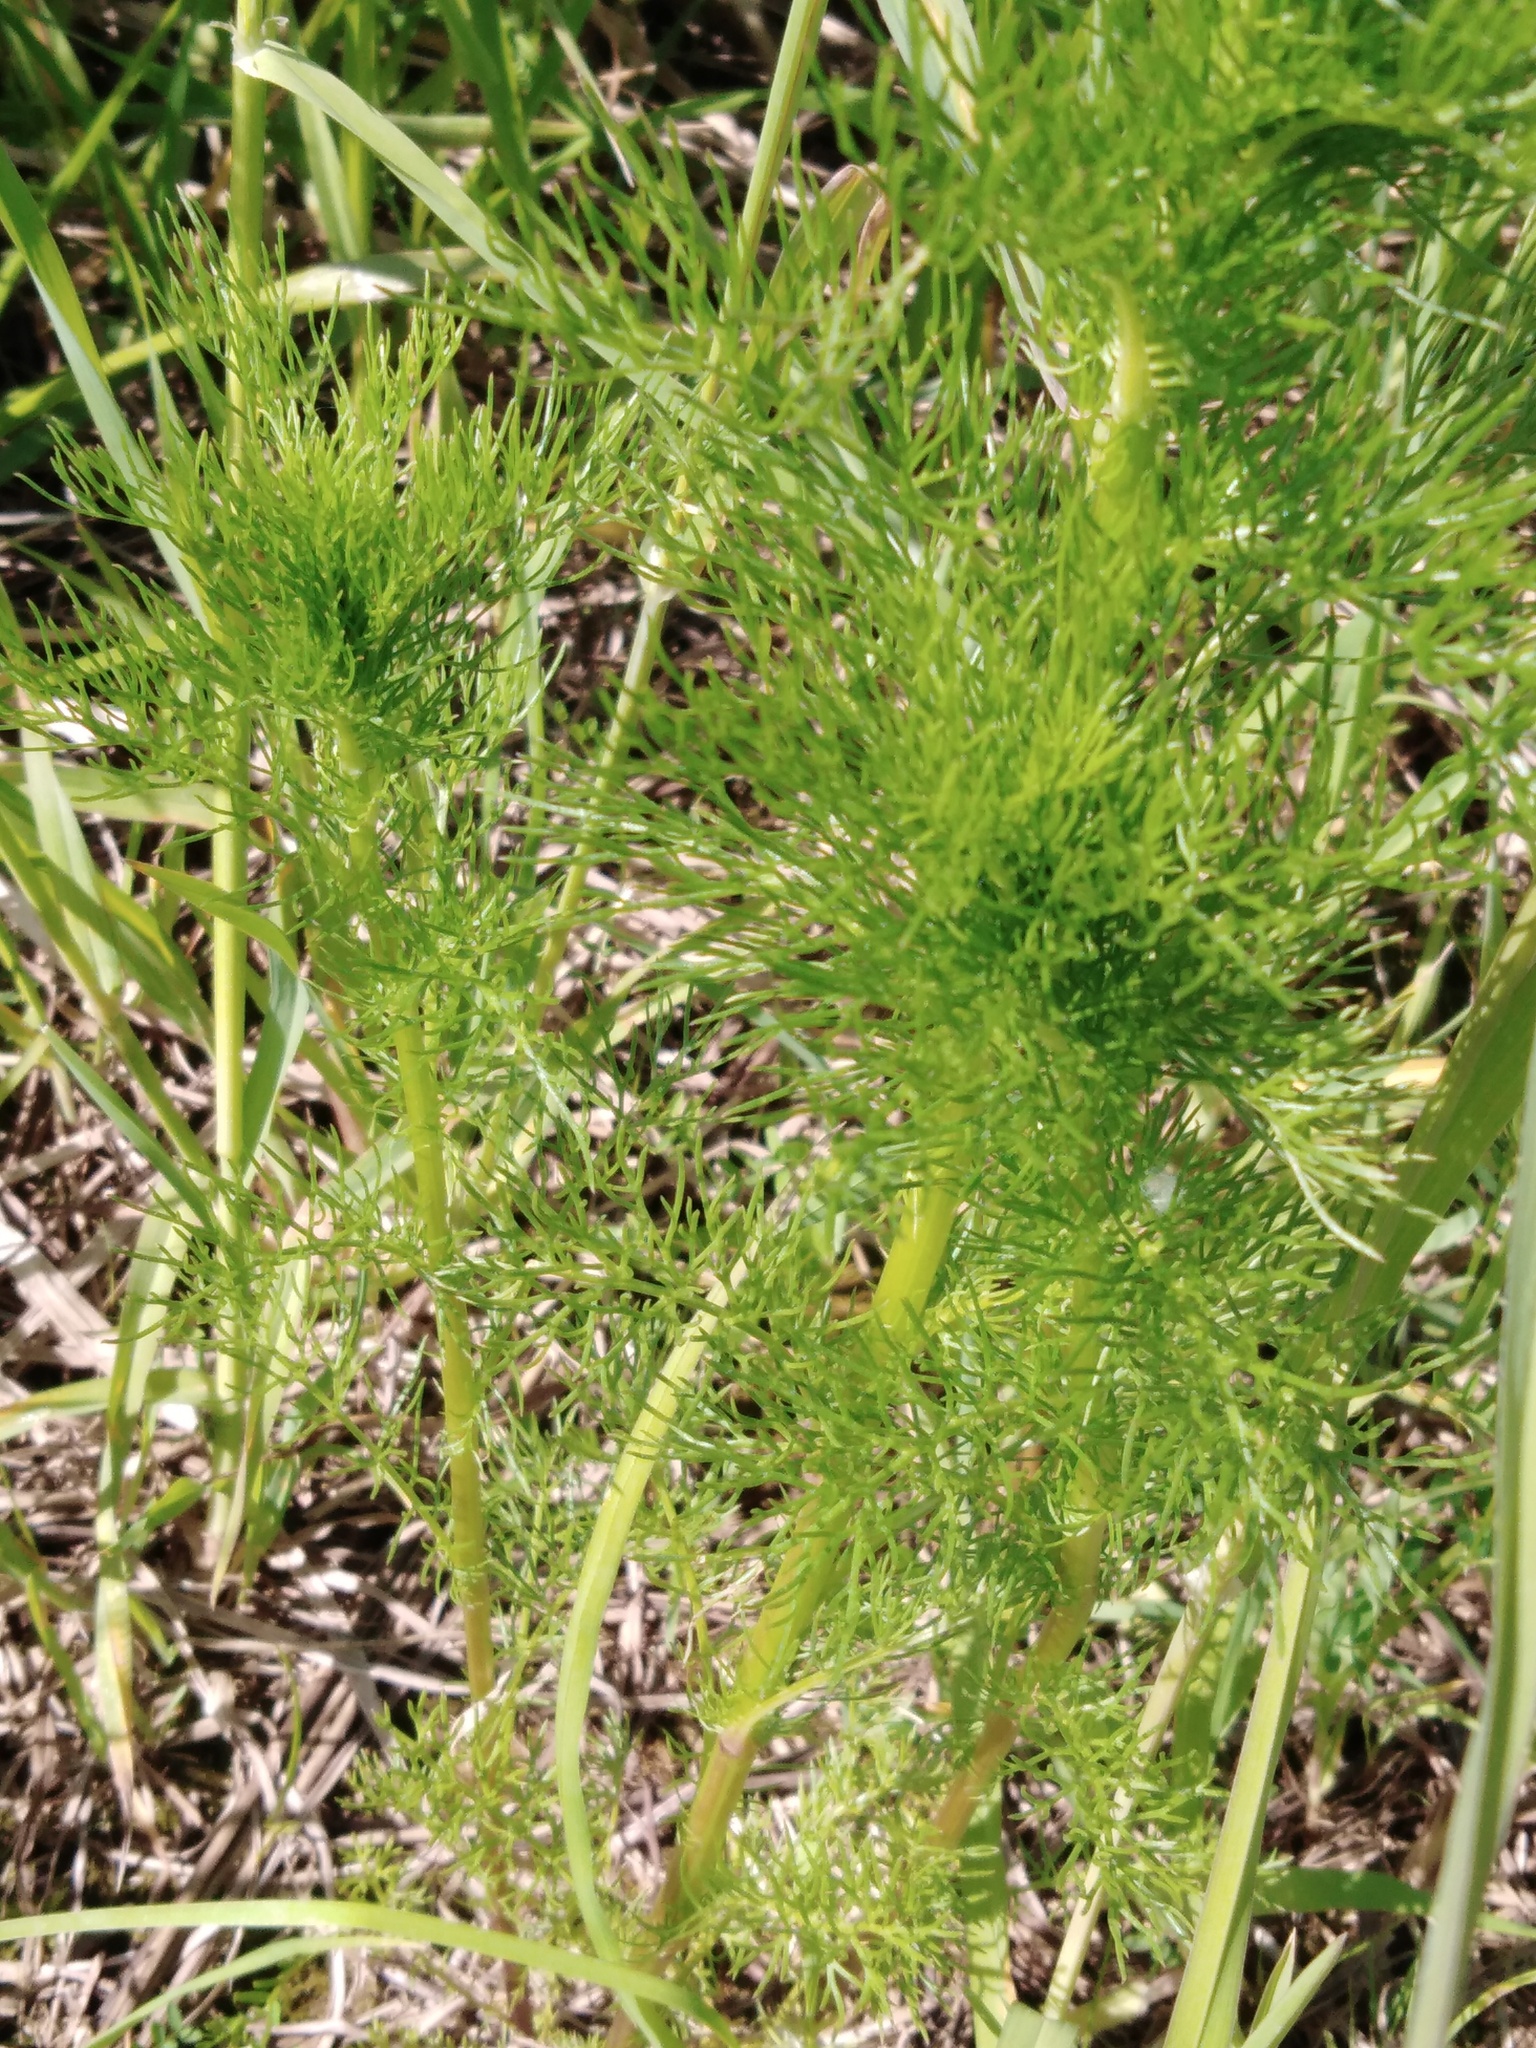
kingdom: Plantae
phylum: Tracheophyta
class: Magnoliopsida
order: Asterales
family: Asteraceae
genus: Tripleurospermum
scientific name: Tripleurospermum inodorum
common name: Scentless mayweed
